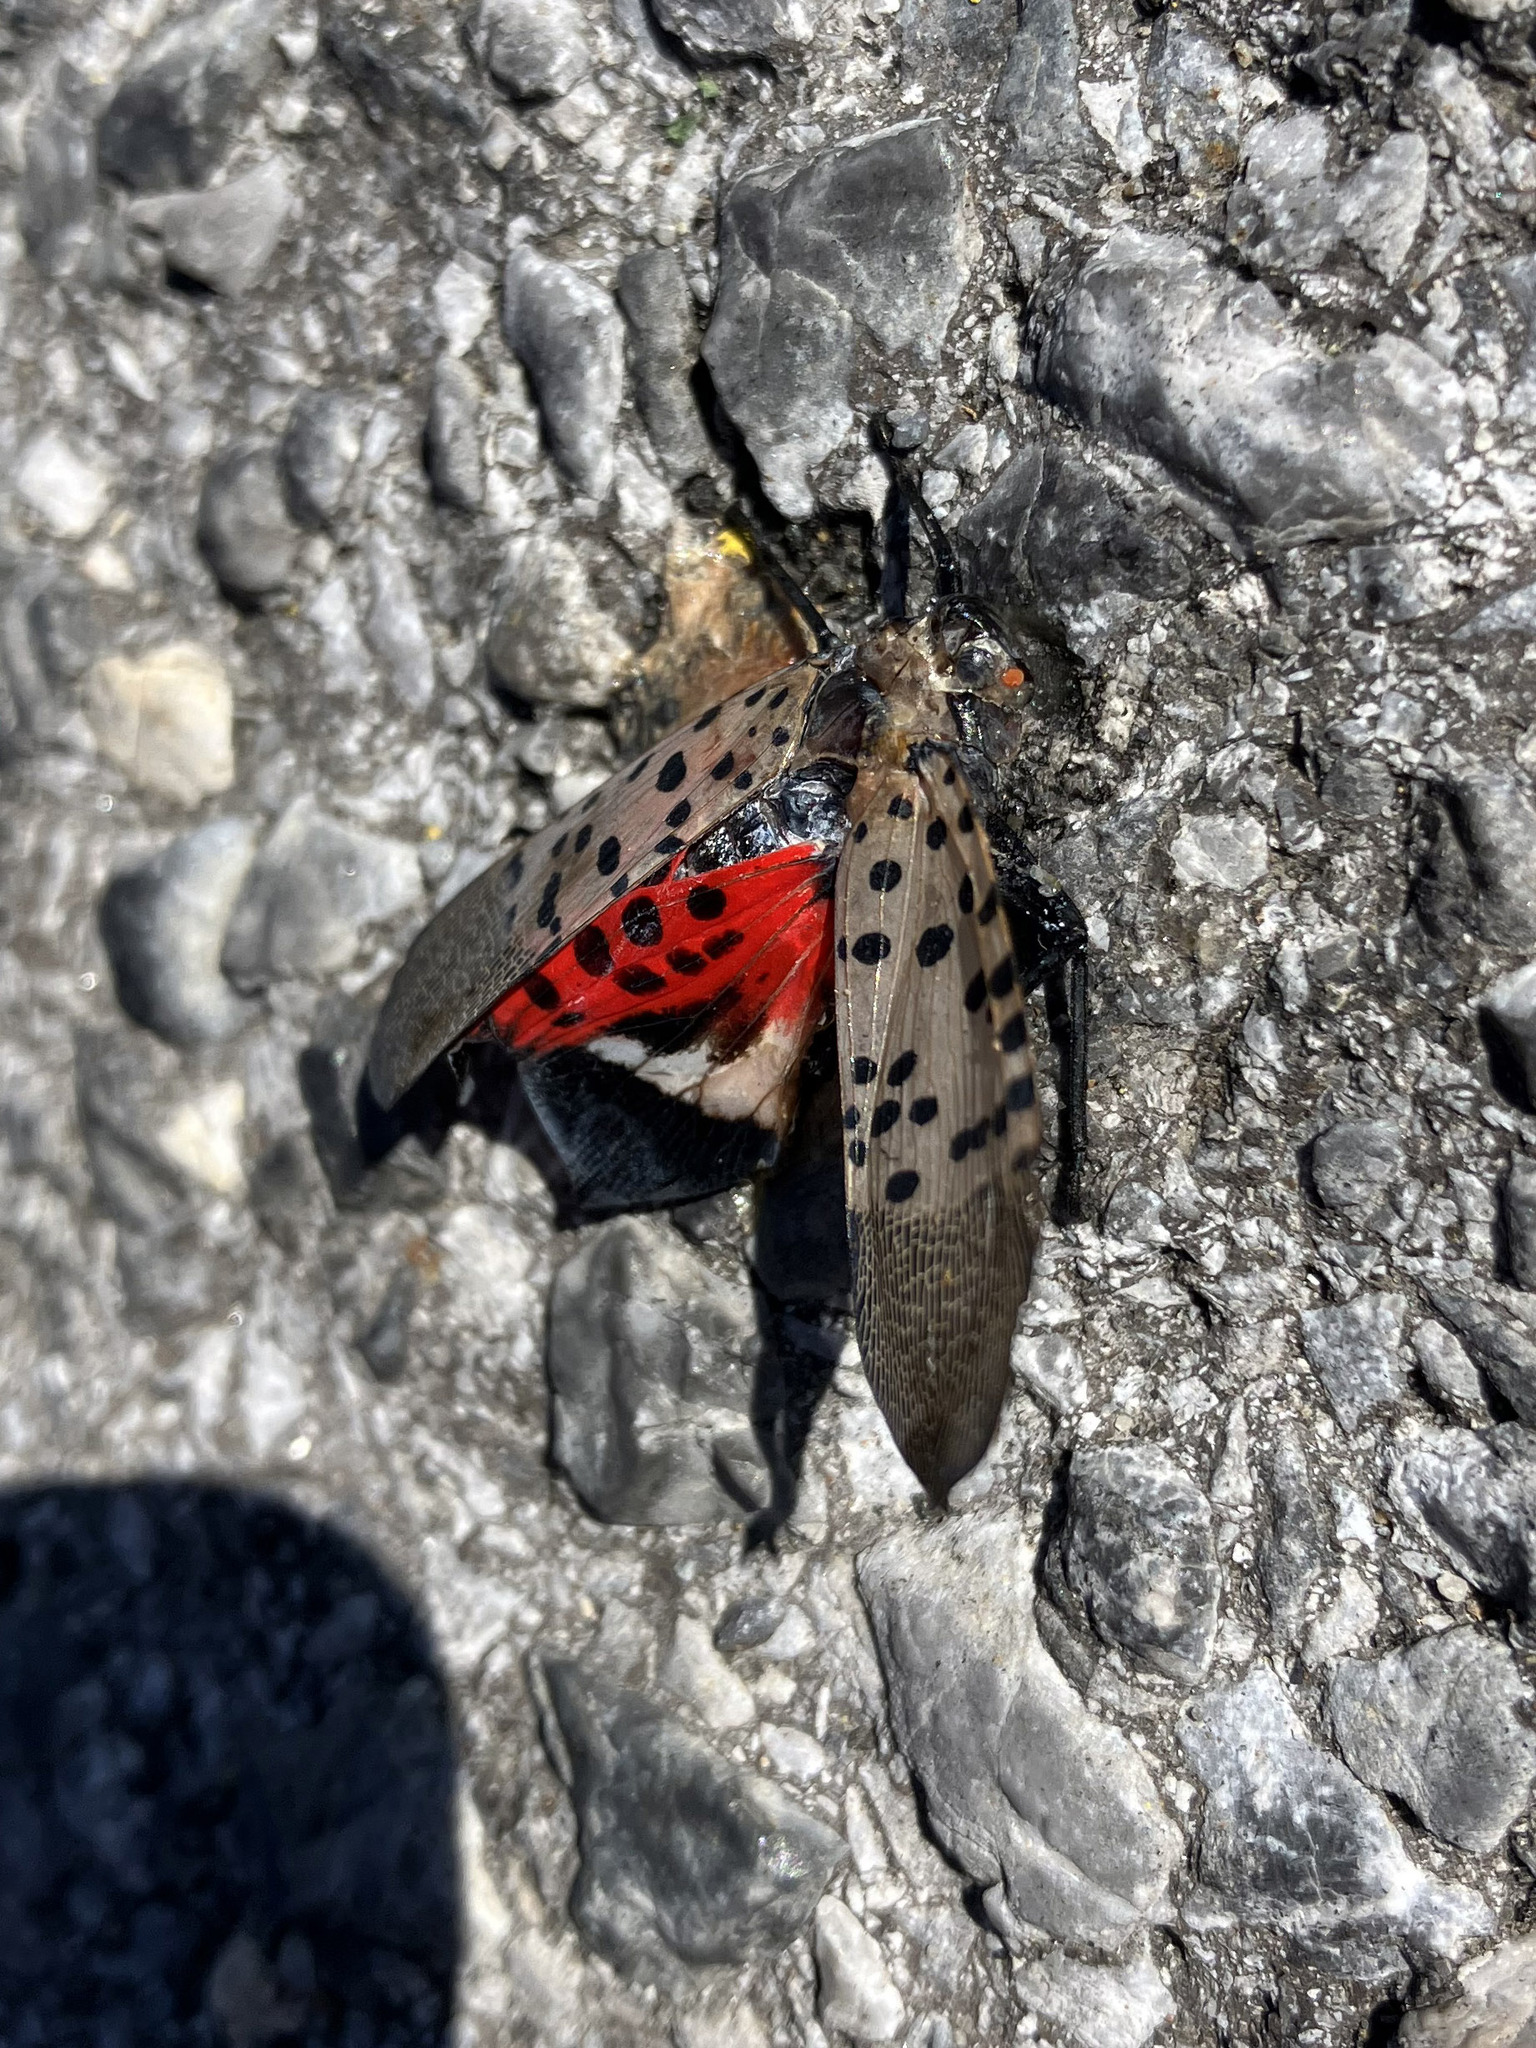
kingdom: Animalia
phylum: Arthropoda
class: Insecta
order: Hemiptera
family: Fulgoridae
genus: Lycorma
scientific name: Lycorma delicatula
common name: Spotted lanternfly
